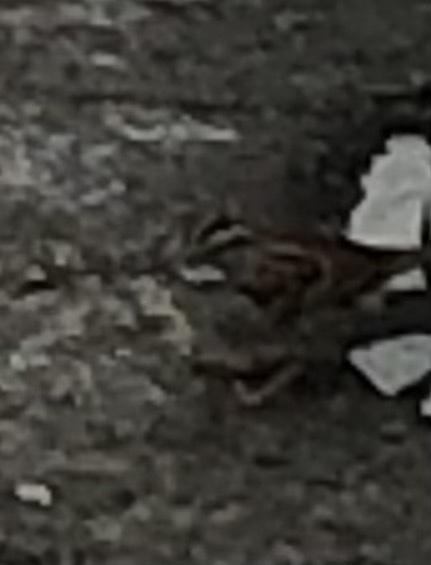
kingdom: Animalia
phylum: Chordata
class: Aves
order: Passeriformes
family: Passerellidae
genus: Zonotrichia
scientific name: Zonotrichia albicollis
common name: White-throated sparrow
